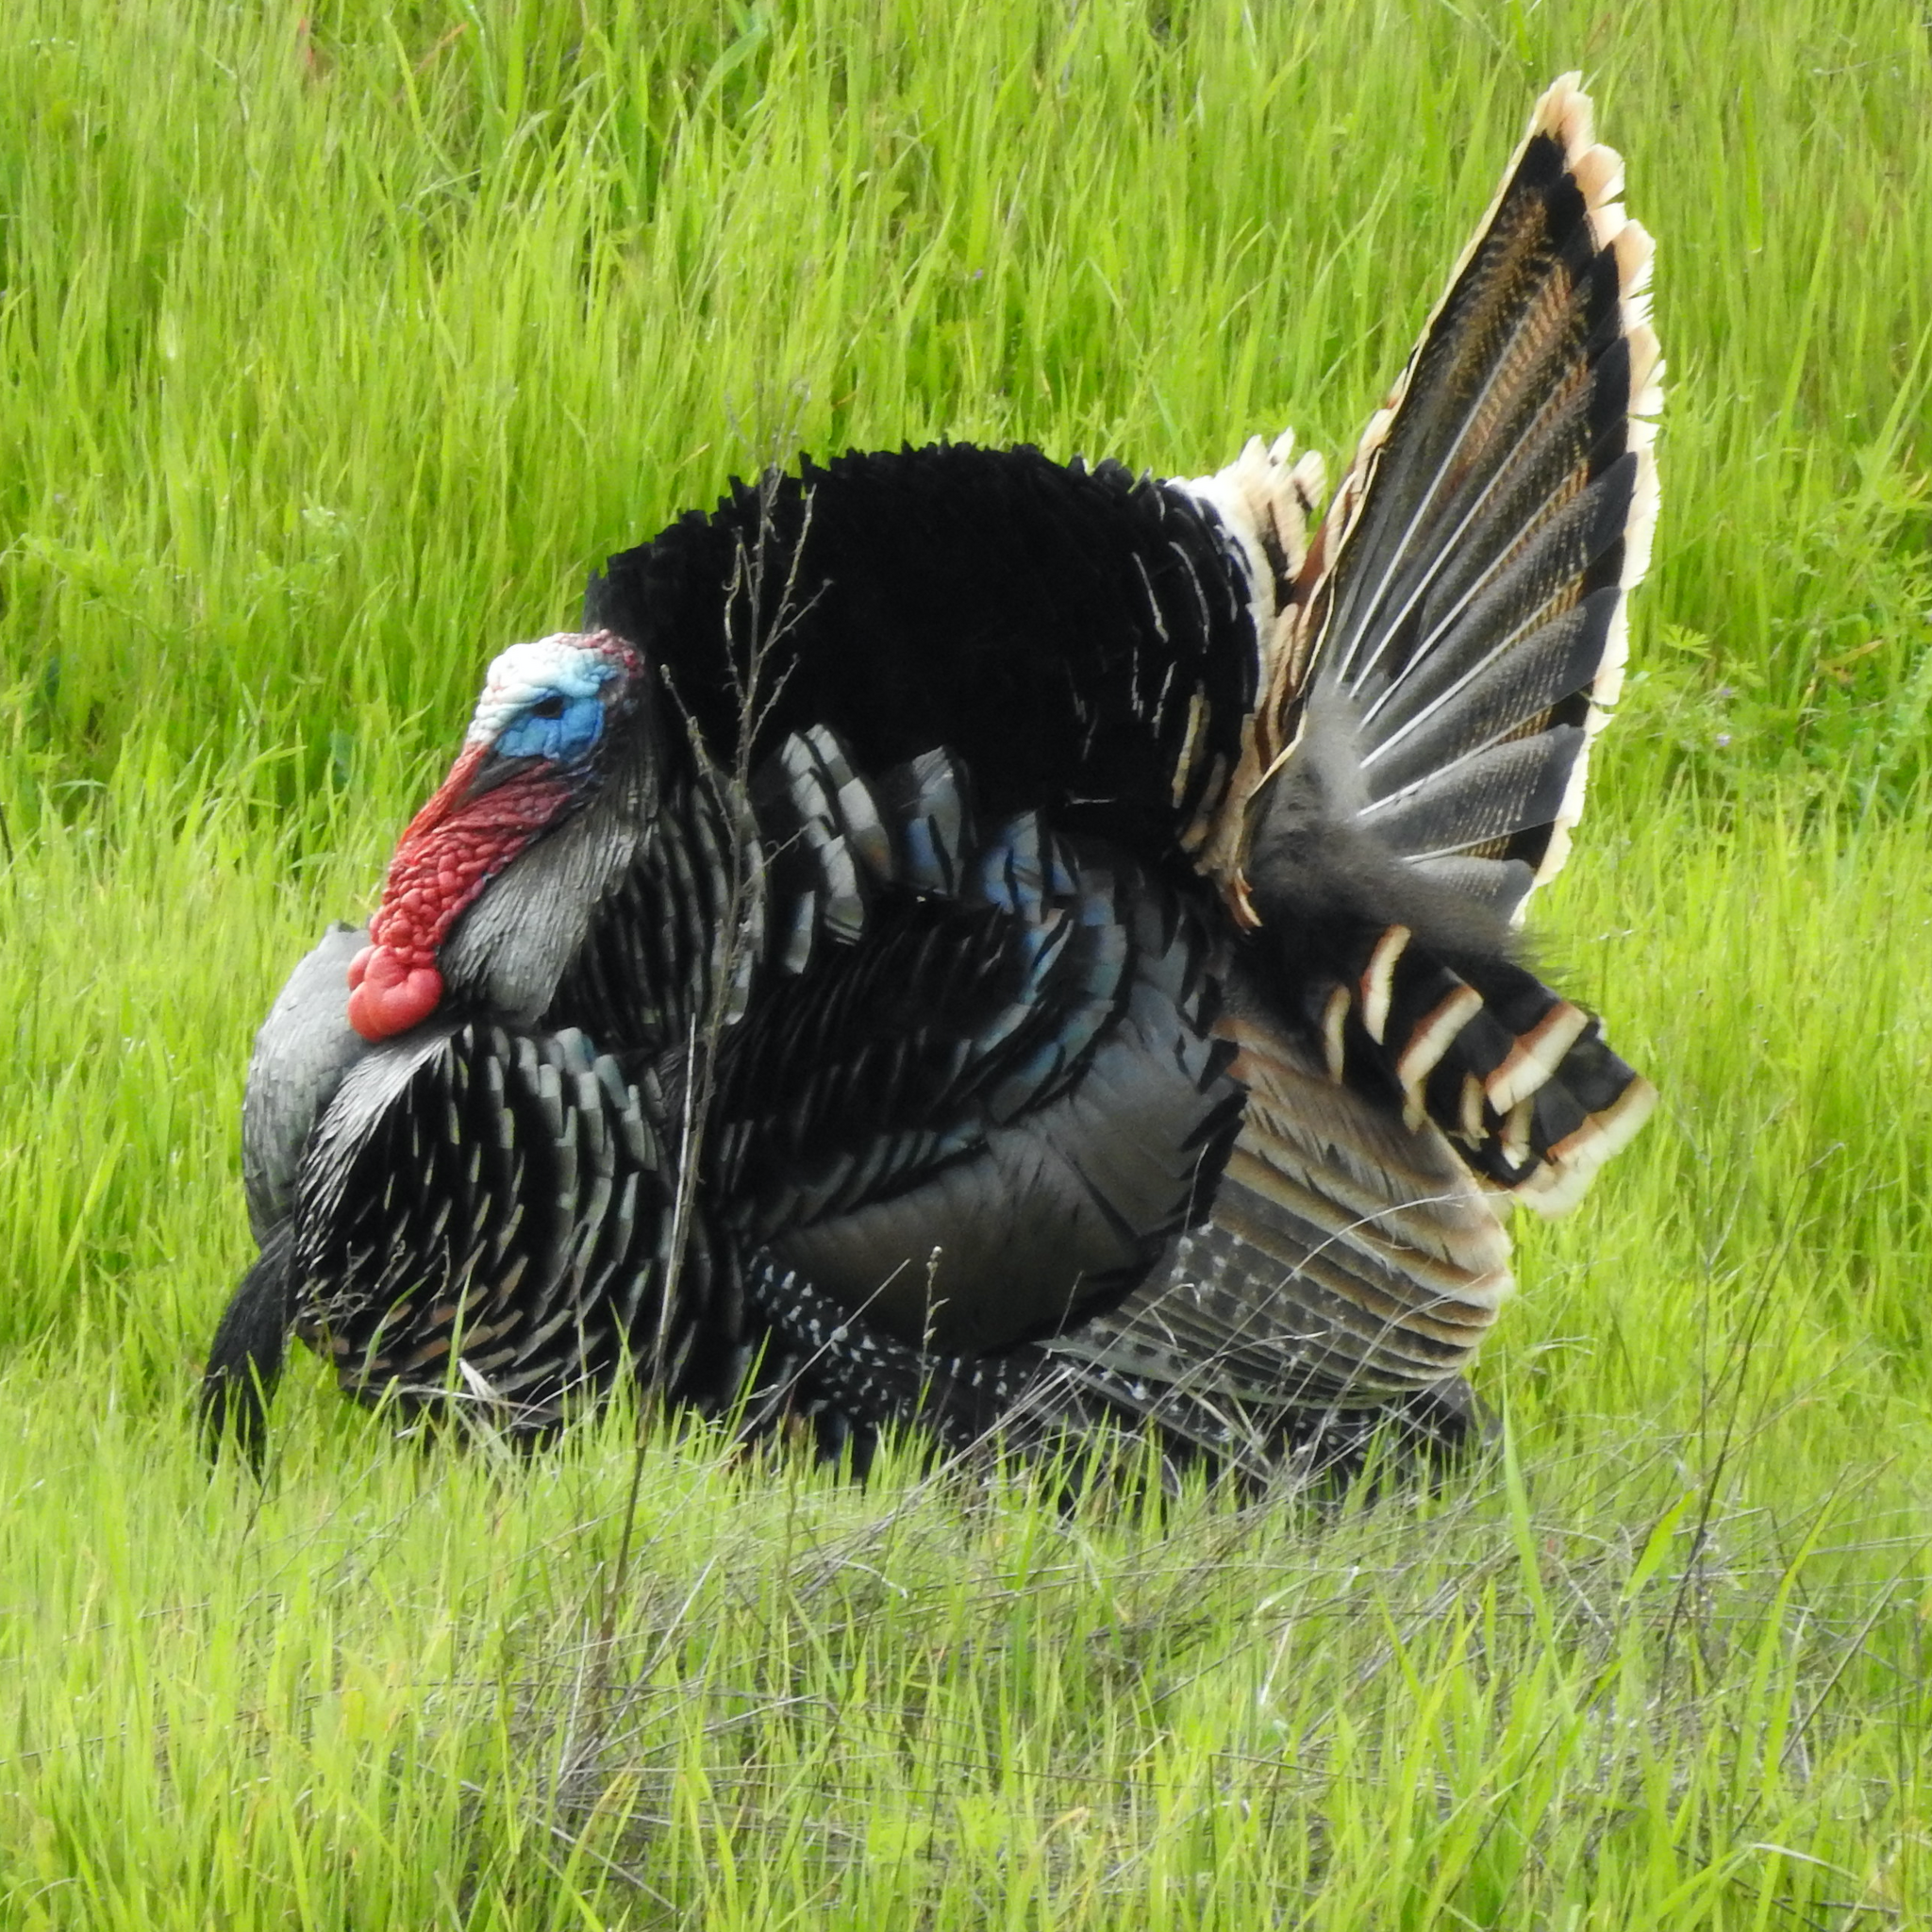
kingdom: Animalia
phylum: Chordata
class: Aves
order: Galliformes
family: Phasianidae
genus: Meleagris
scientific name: Meleagris gallopavo
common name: Wild turkey
